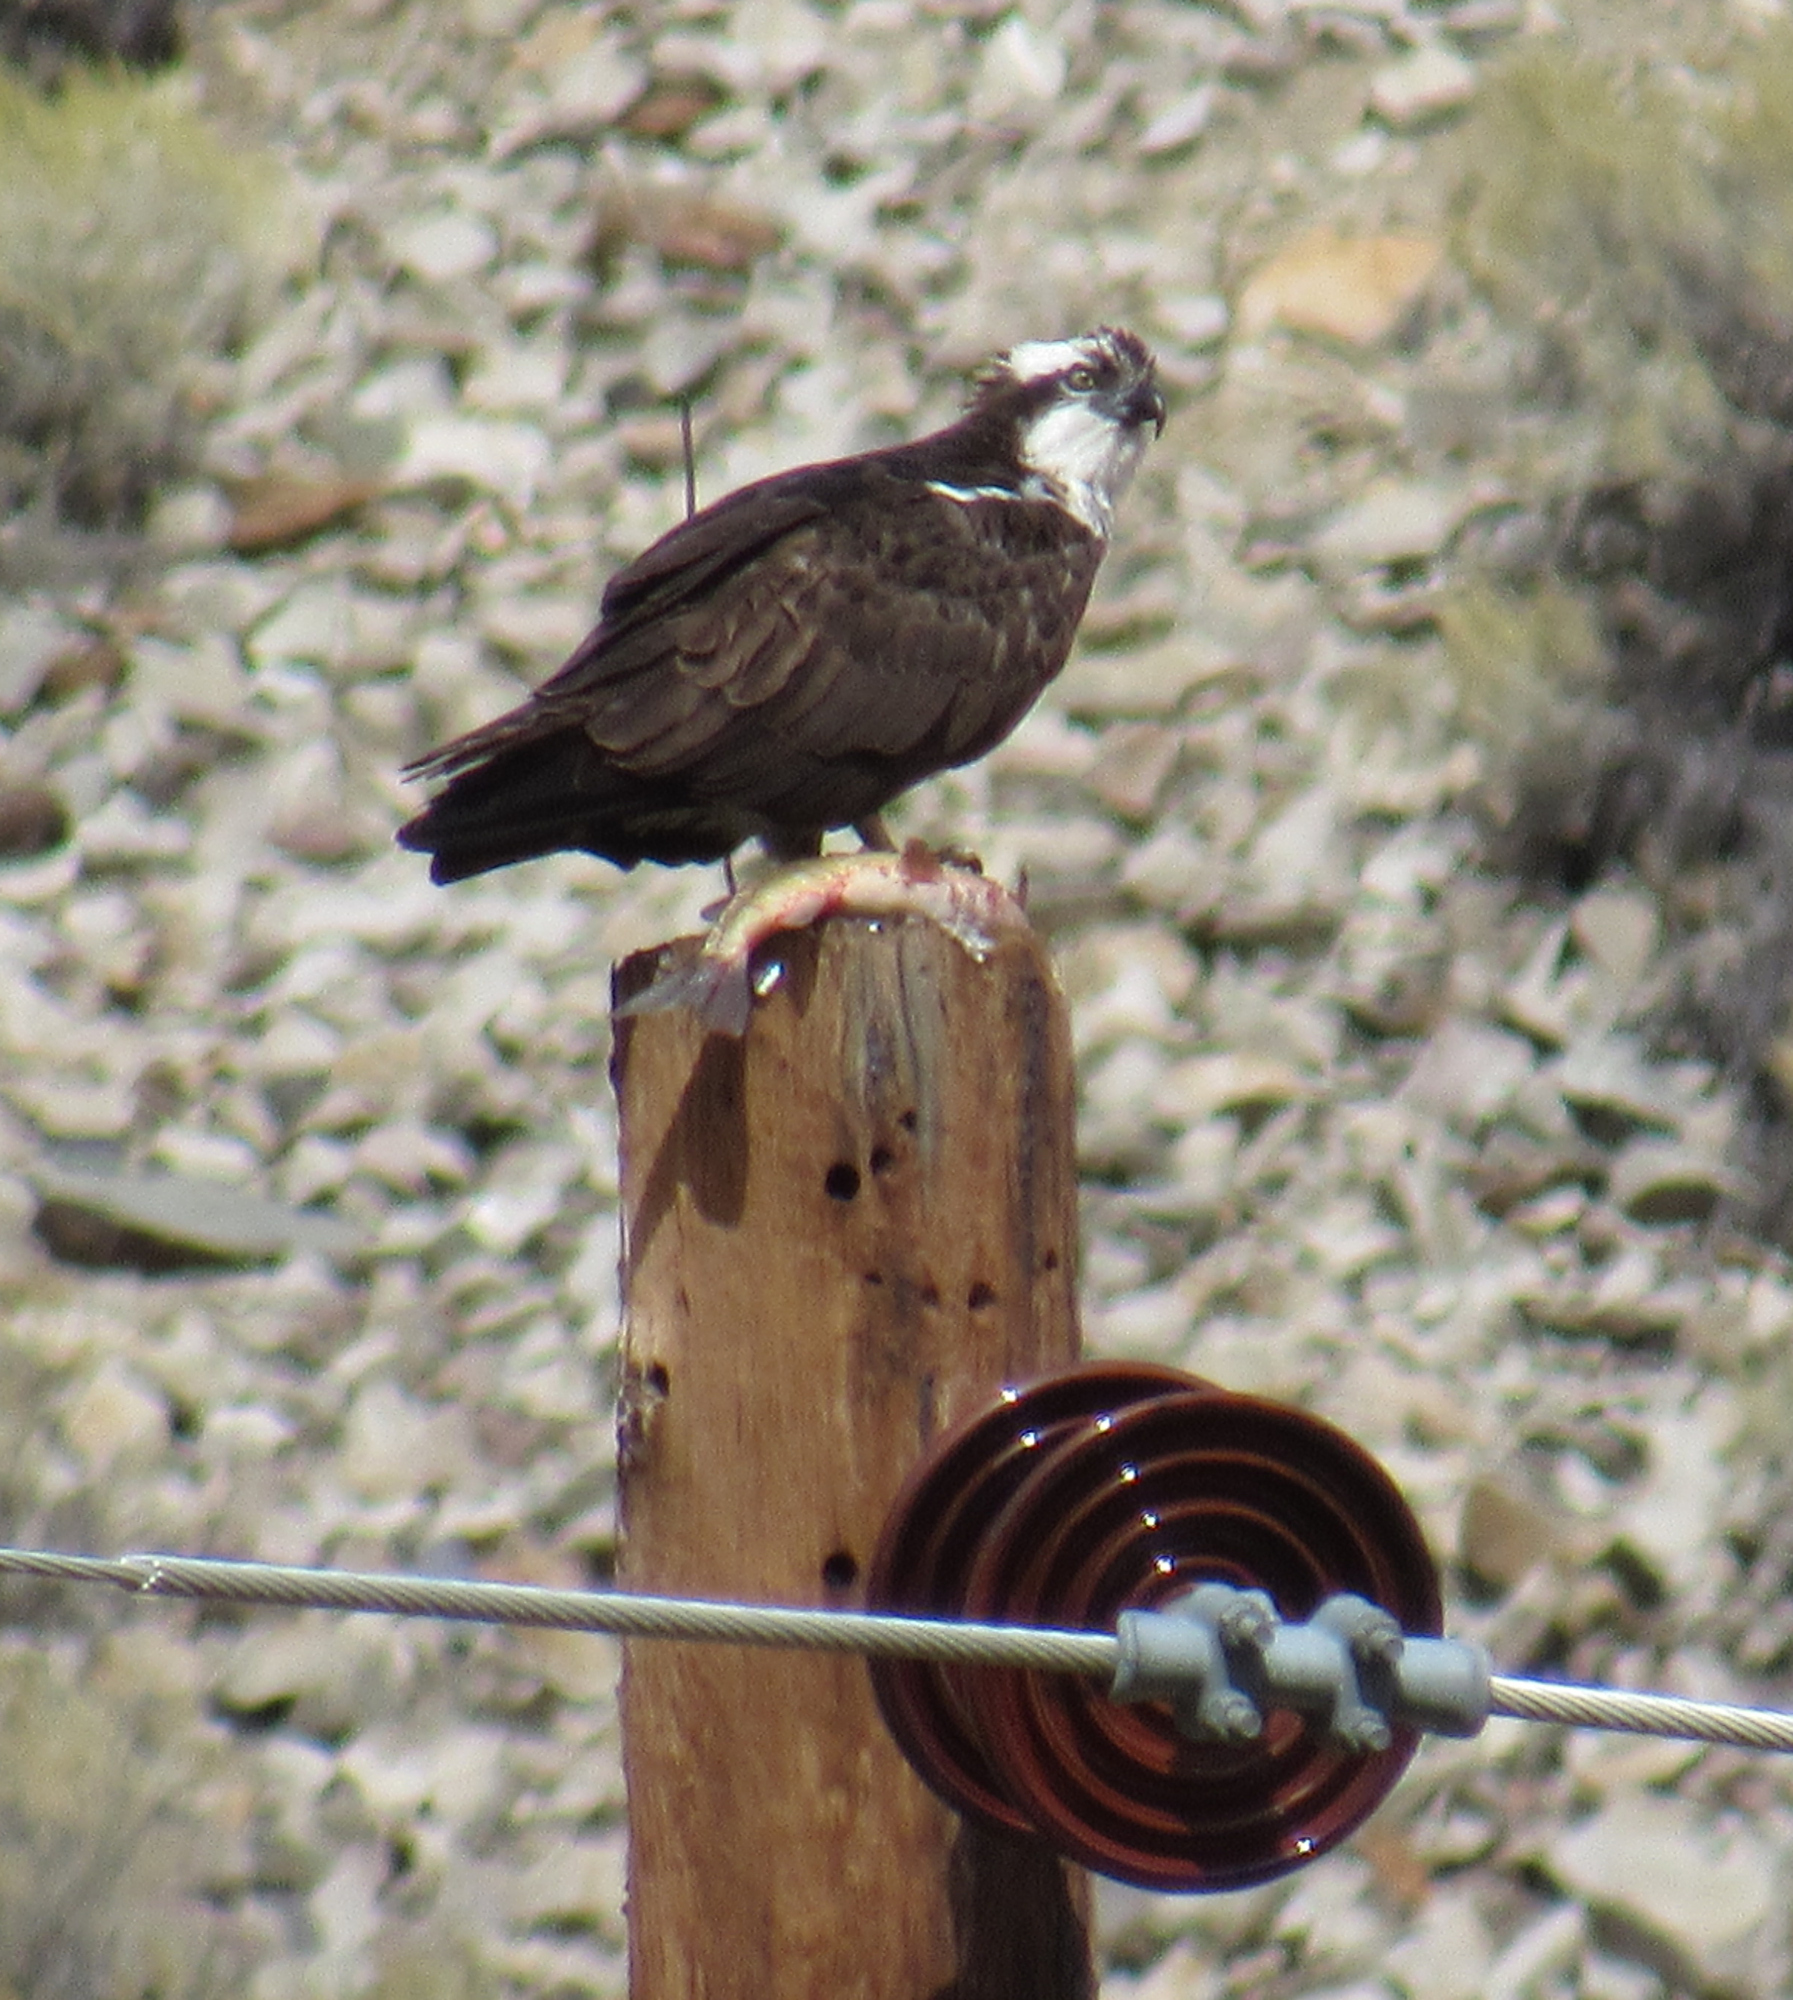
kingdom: Animalia
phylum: Chordata
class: Aves
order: Accipitriformes
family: Pandionidae
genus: Pandion
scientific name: Pandion haliaetus
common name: Osprey
